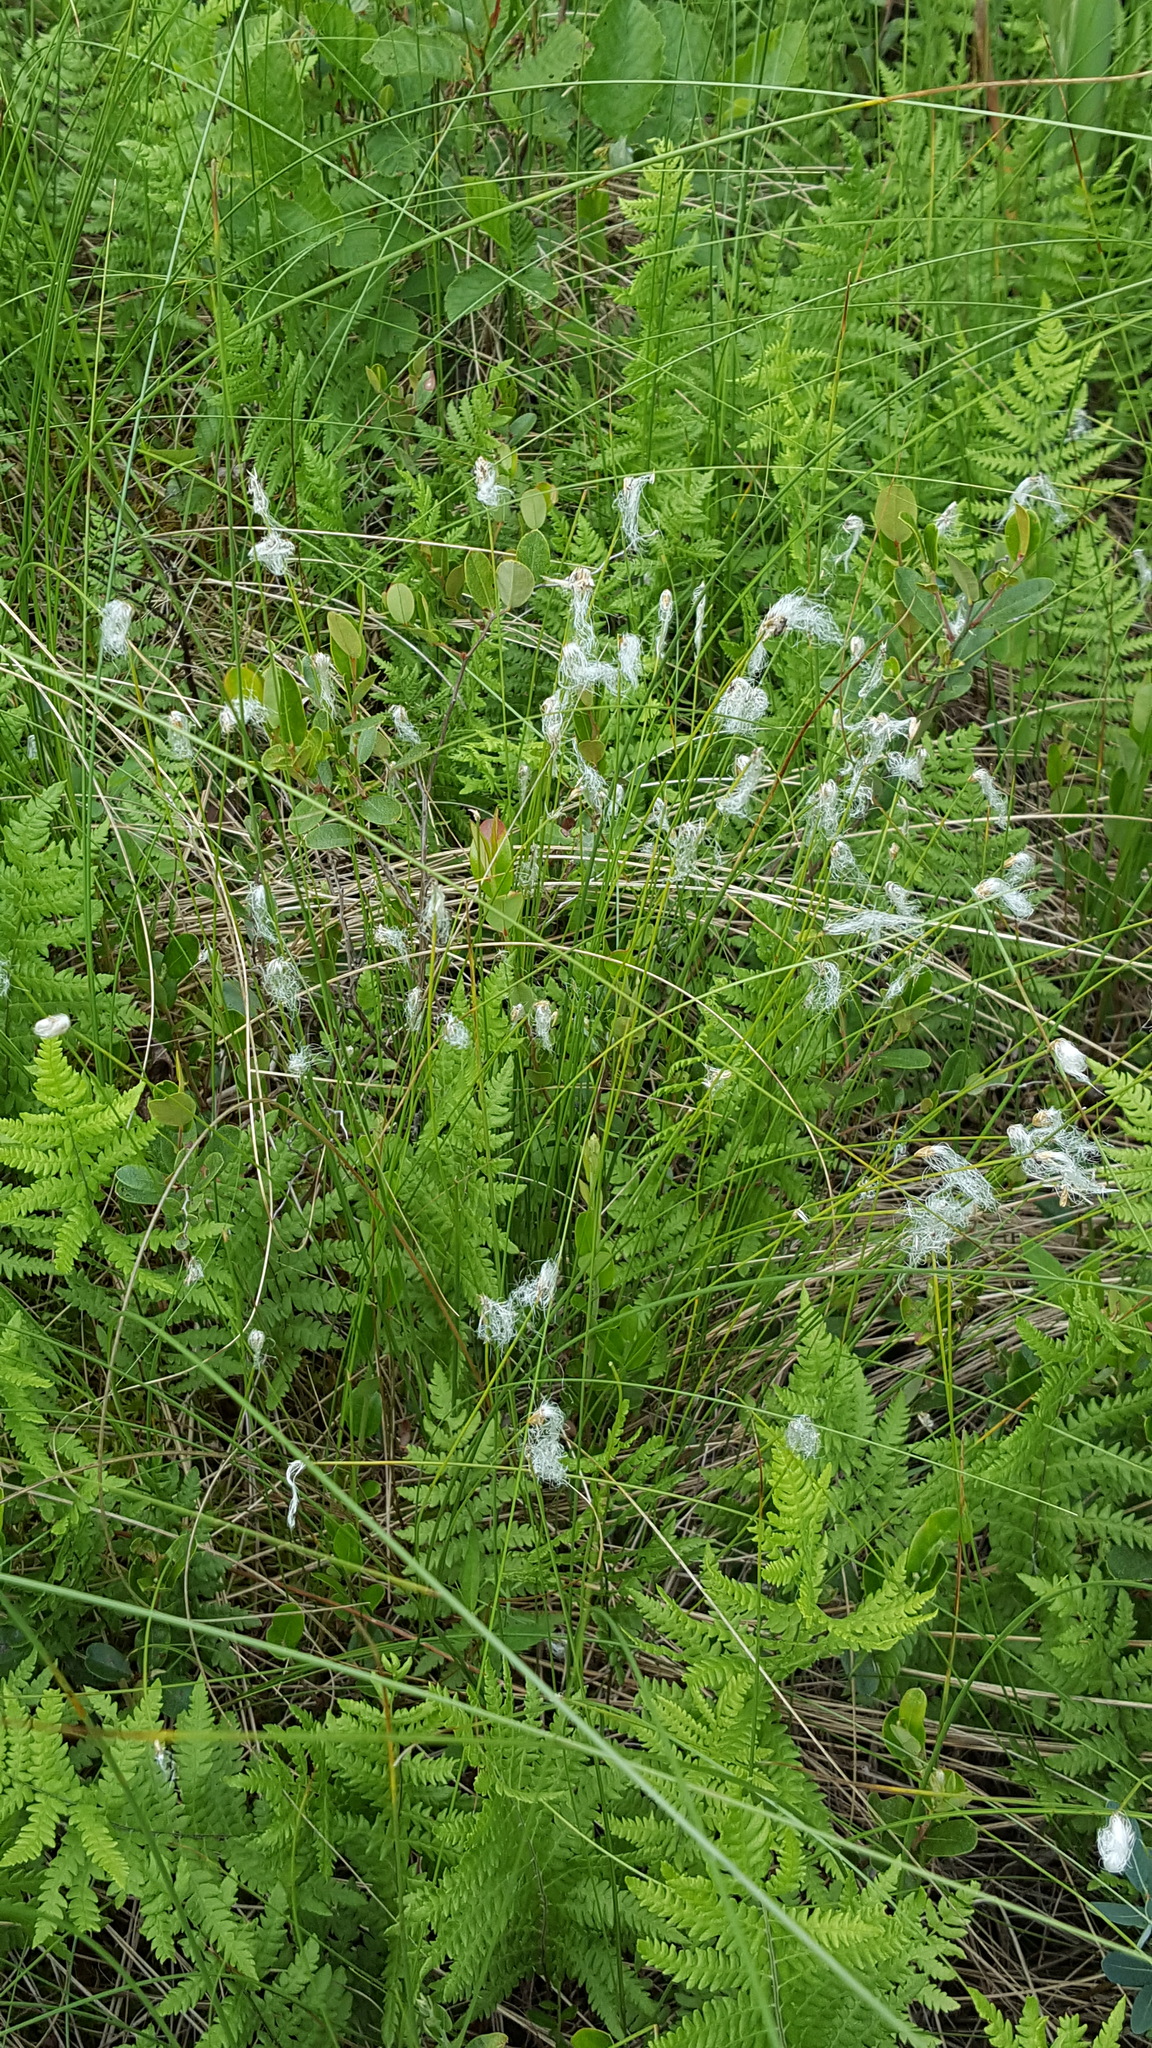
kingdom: Plantae
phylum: Tracheophyta
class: Liliopsida
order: Poales
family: Cyperaceae
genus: Trichophorum
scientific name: Trichophorum alpinum
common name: Alpine bulrush
